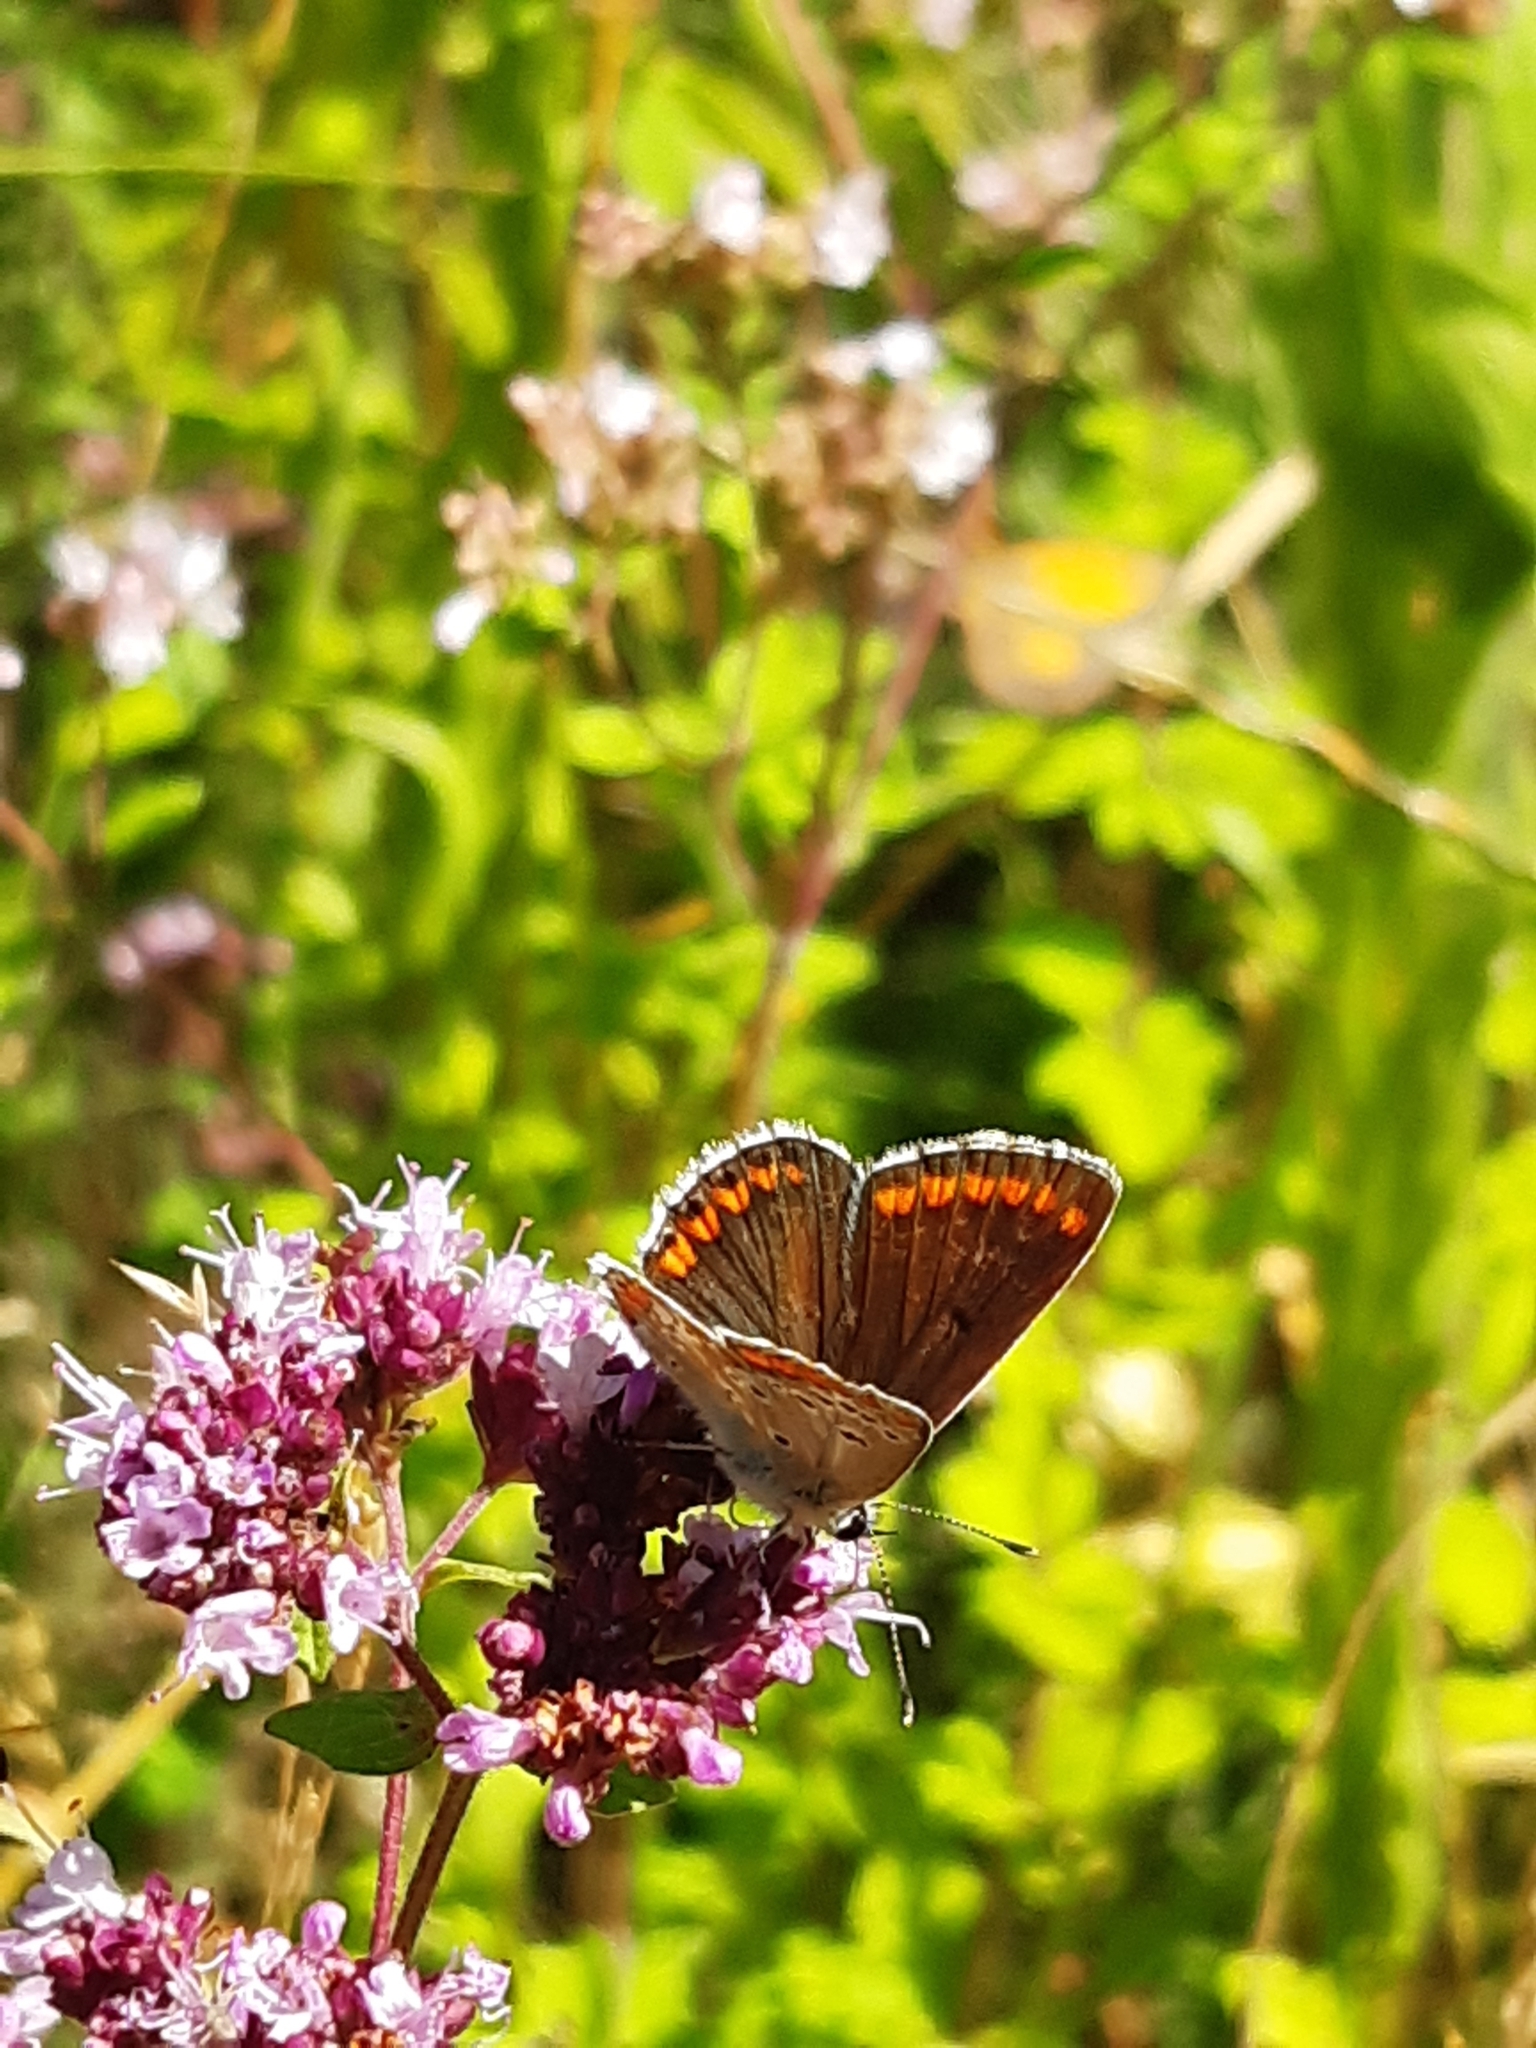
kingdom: Animalia
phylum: Arthropoda
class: Insecta
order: Lepidoptera
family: Lycaenidae
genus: Aricia
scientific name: Aricia agestis
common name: Brown argus
